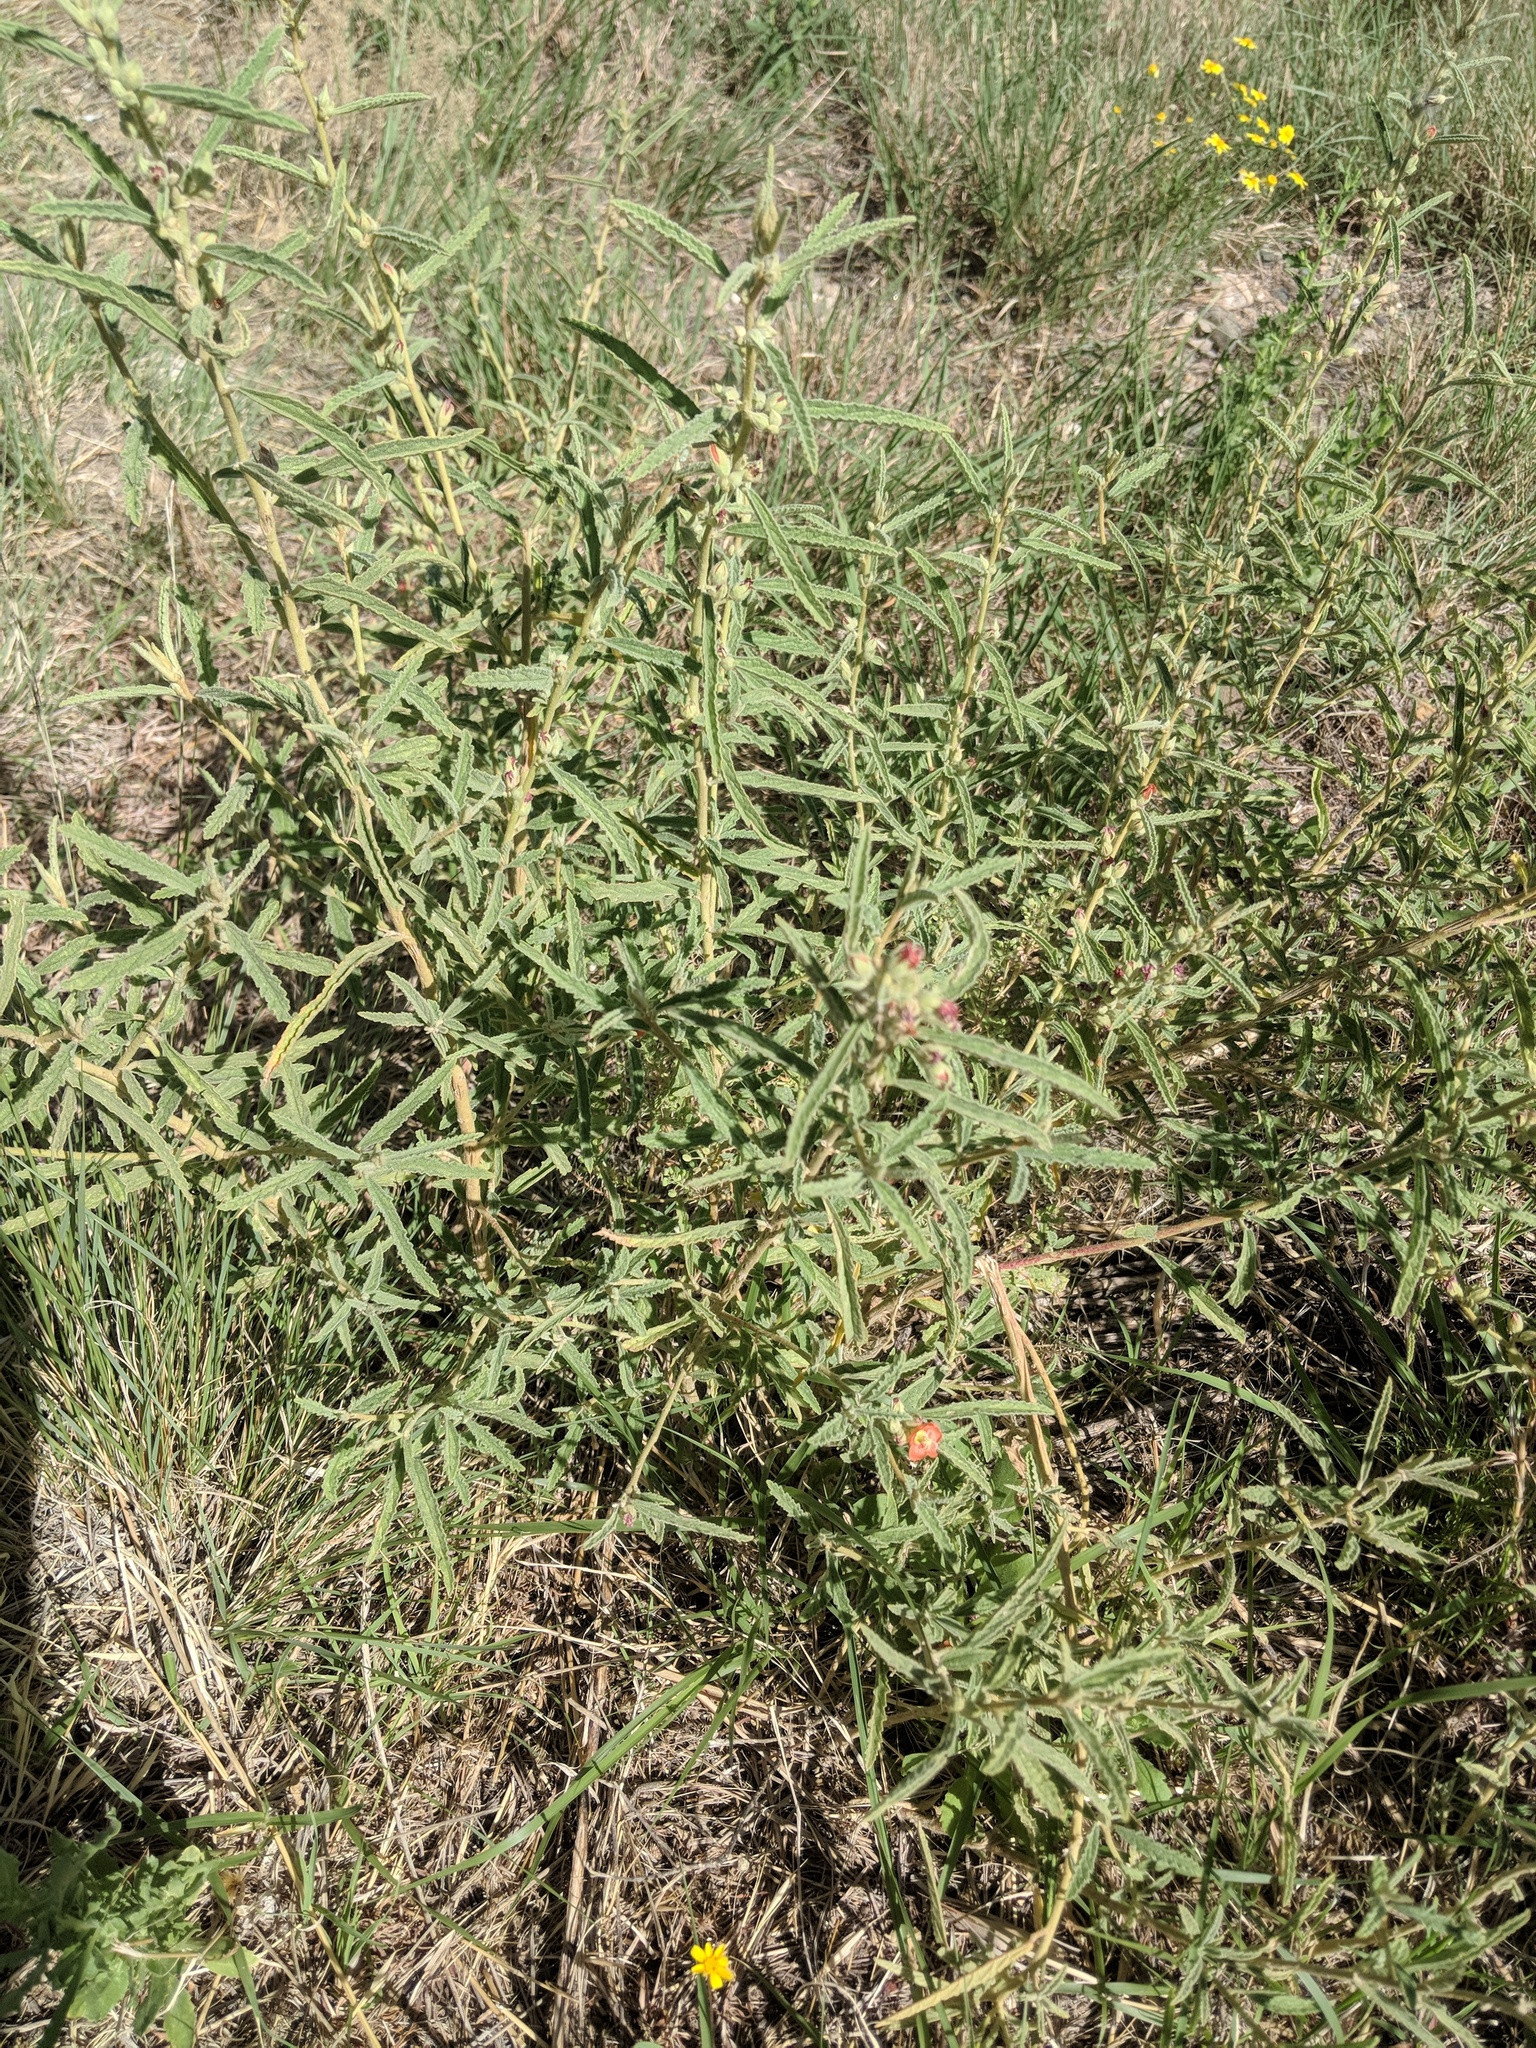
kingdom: Plantae
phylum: Tracheophyta
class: Magnoliopsida
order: Malvales
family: Malvaceae
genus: Sphaeralcea
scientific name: Sphaeralcea angustifolia
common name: Copper globe-mallow
